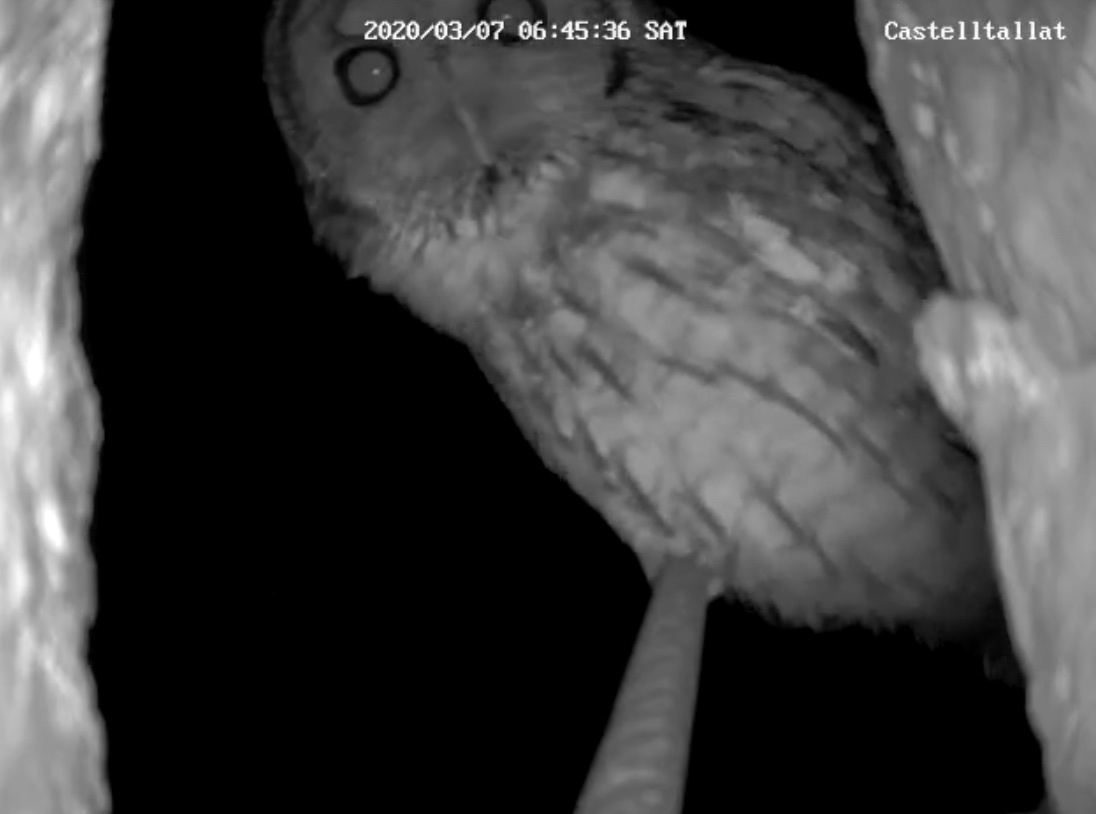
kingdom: Animalia
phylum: Chordata
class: Aves
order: Strigiformes
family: Strigidae
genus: Strix
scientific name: Strix aluco
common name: Tawny owl
